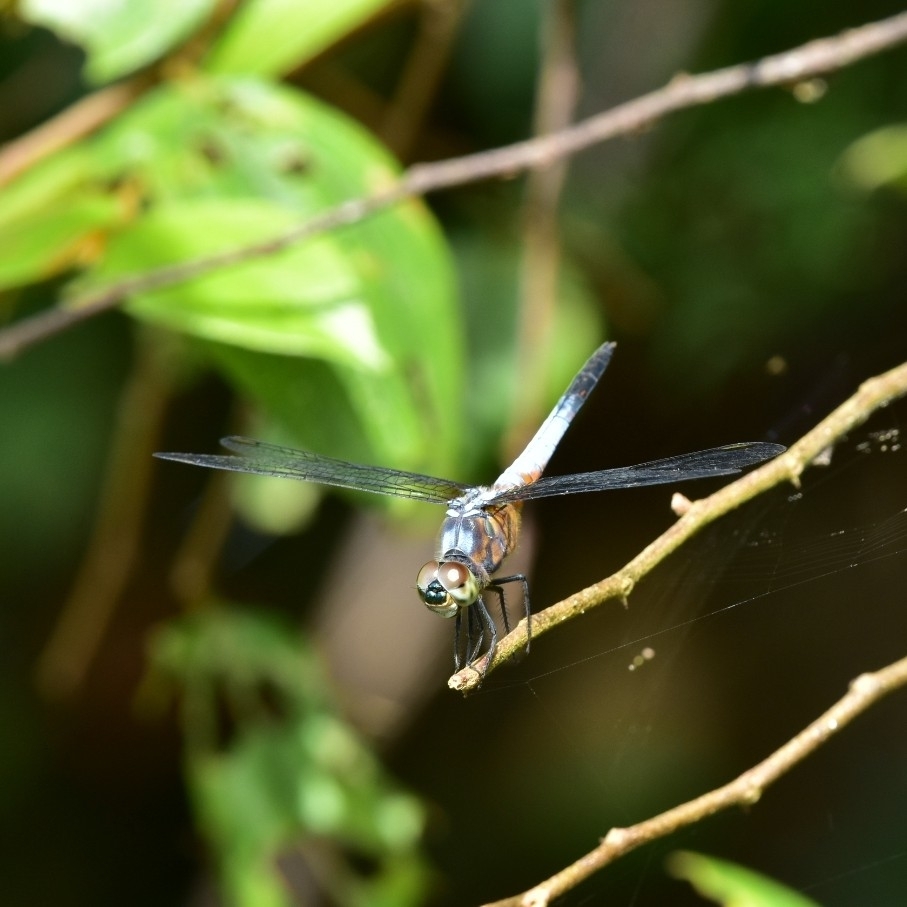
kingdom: Animalia
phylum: Arthropoda
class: Insecta
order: Odonata
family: Libellulidae
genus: Brachydiplax
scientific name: Brachydiplax chalybea
